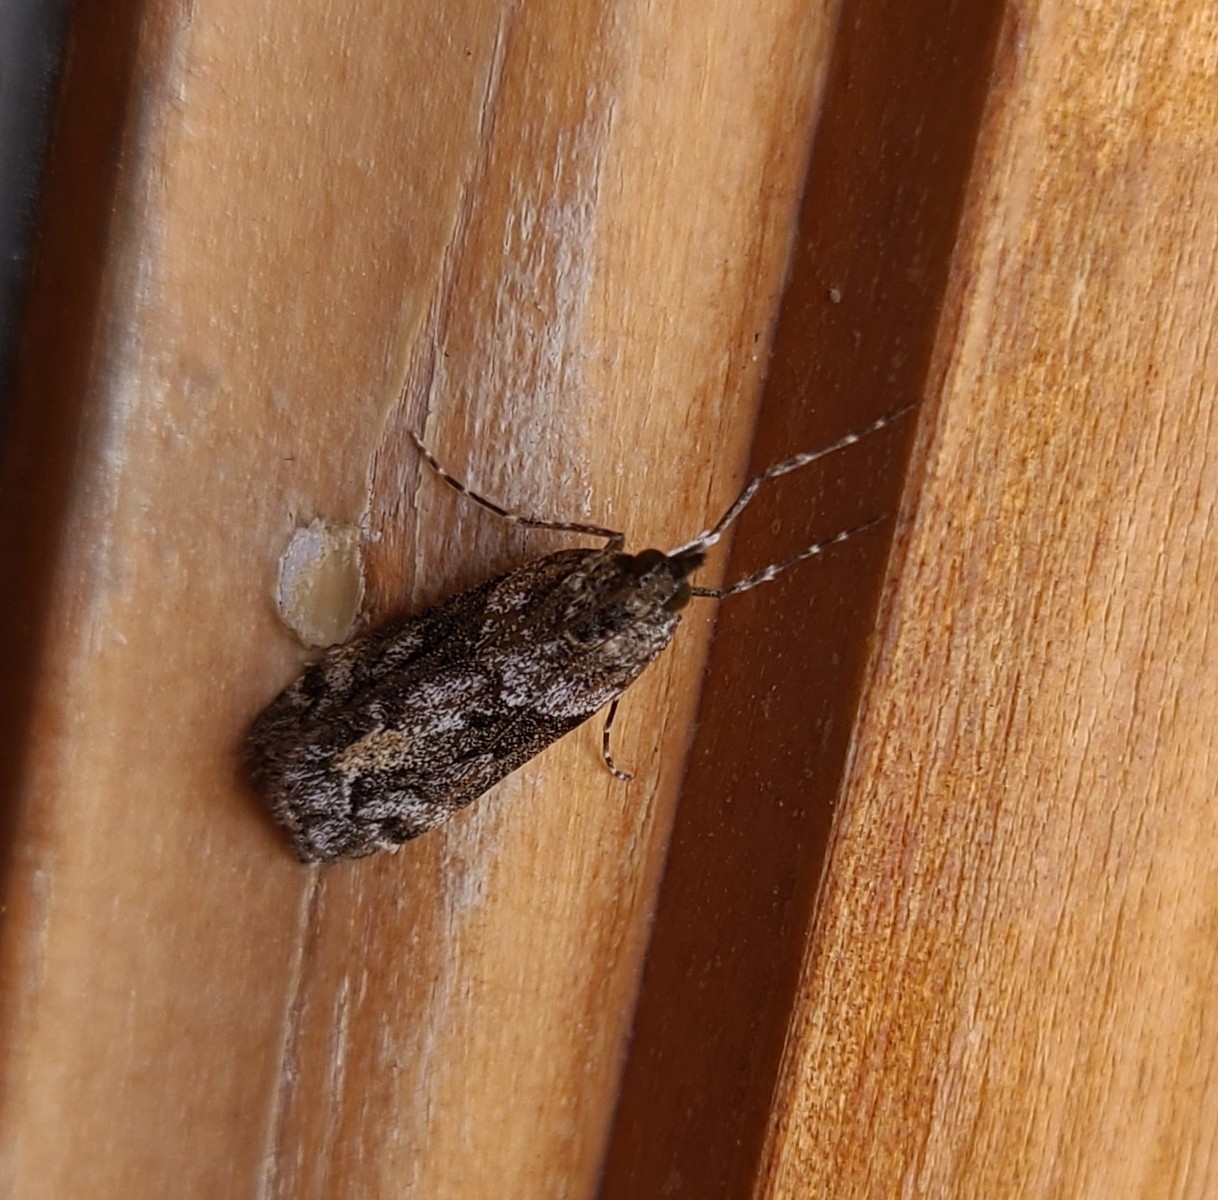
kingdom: Animalia
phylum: Arthropoda
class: Insecta
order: Lepidoptera
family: Crambidae
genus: Eudonia
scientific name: Eudonia submarginalis
